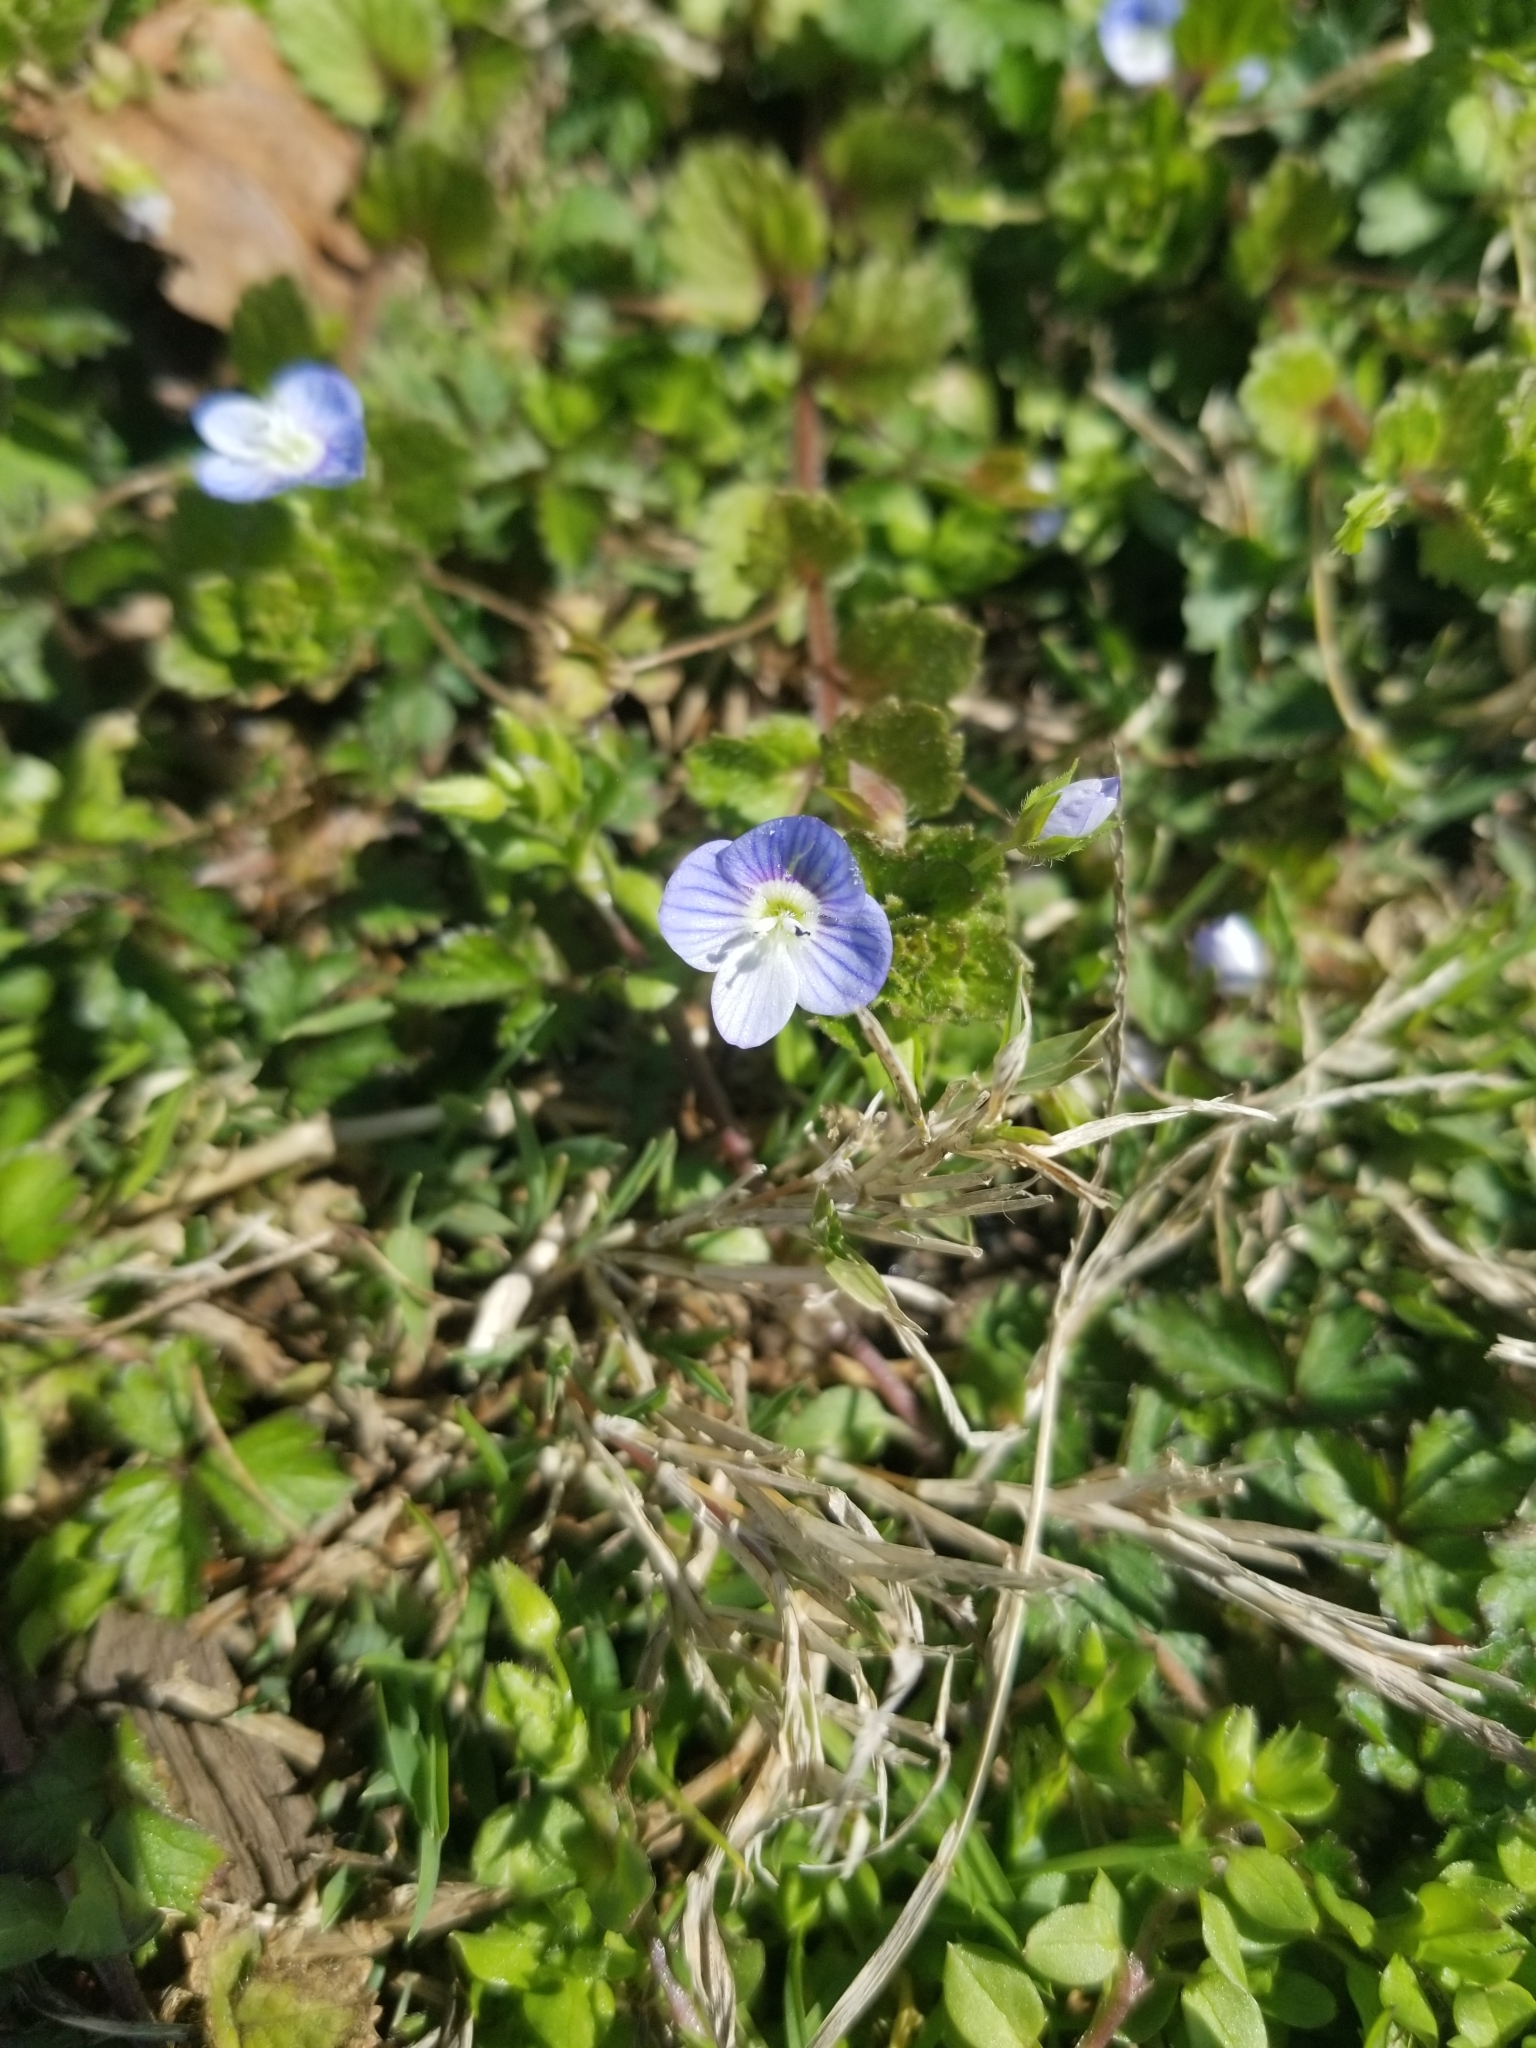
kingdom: Plantae
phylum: Tracheophyta
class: Magnoliopsida
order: Lamiales
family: Plantaginaceae
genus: Veronica
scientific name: Veronica persica
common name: Common field-speedwell
